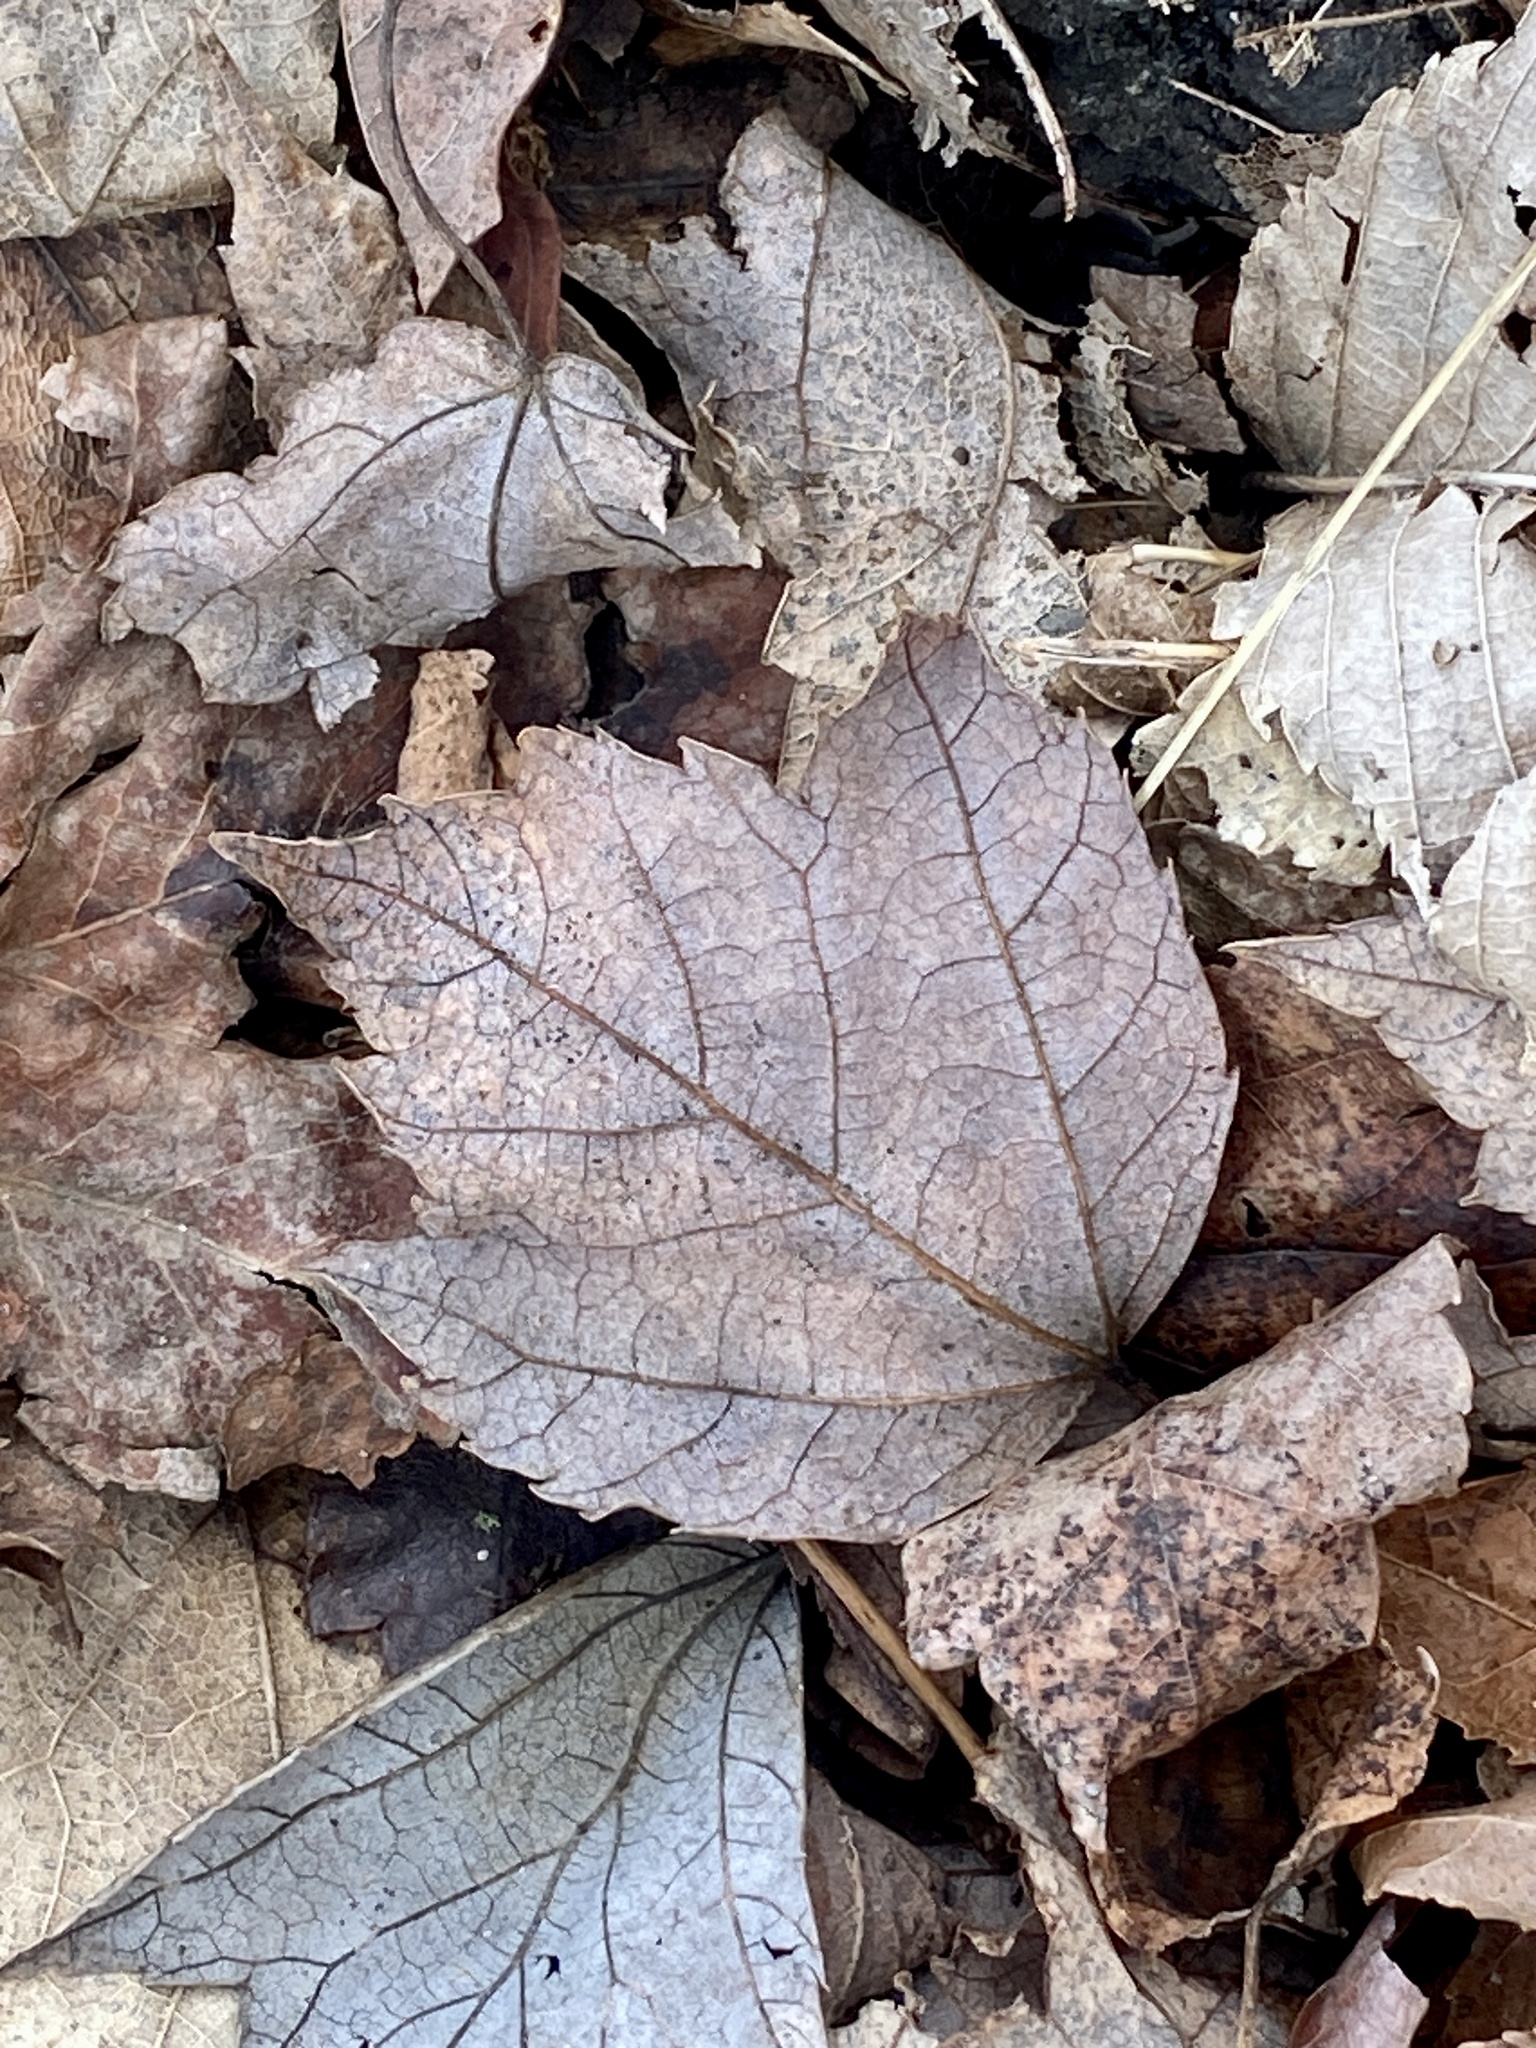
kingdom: Plantae
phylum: Tracheophyta
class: Magnoliopsida
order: Sapindales
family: Sapindaceae
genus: Acer
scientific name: Acer rubrum
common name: Red maple
